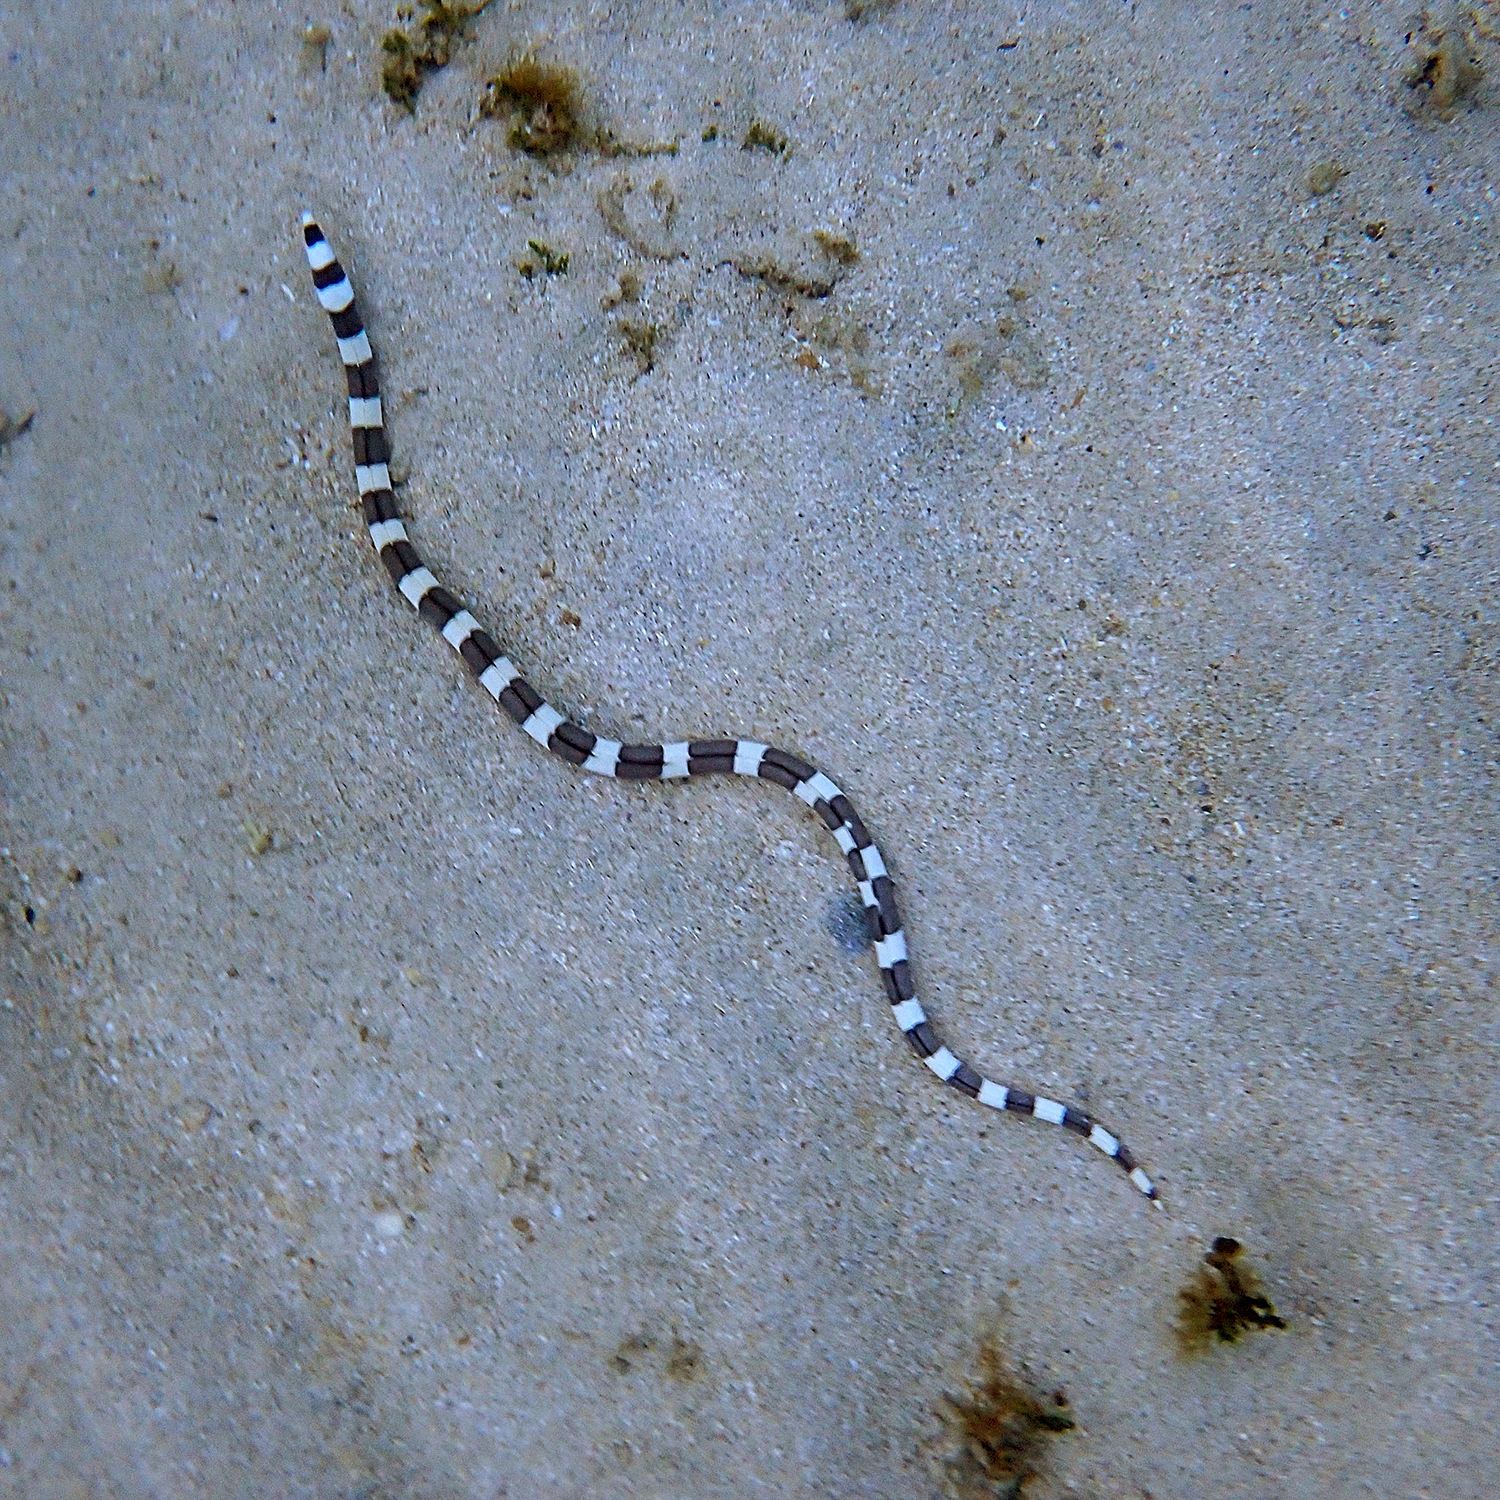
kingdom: Animalia
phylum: Chordata
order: Anguilliformes
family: Ophichthidae
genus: Leiuranus
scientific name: Leiuranus semicinctus
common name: Saddled snake eel
